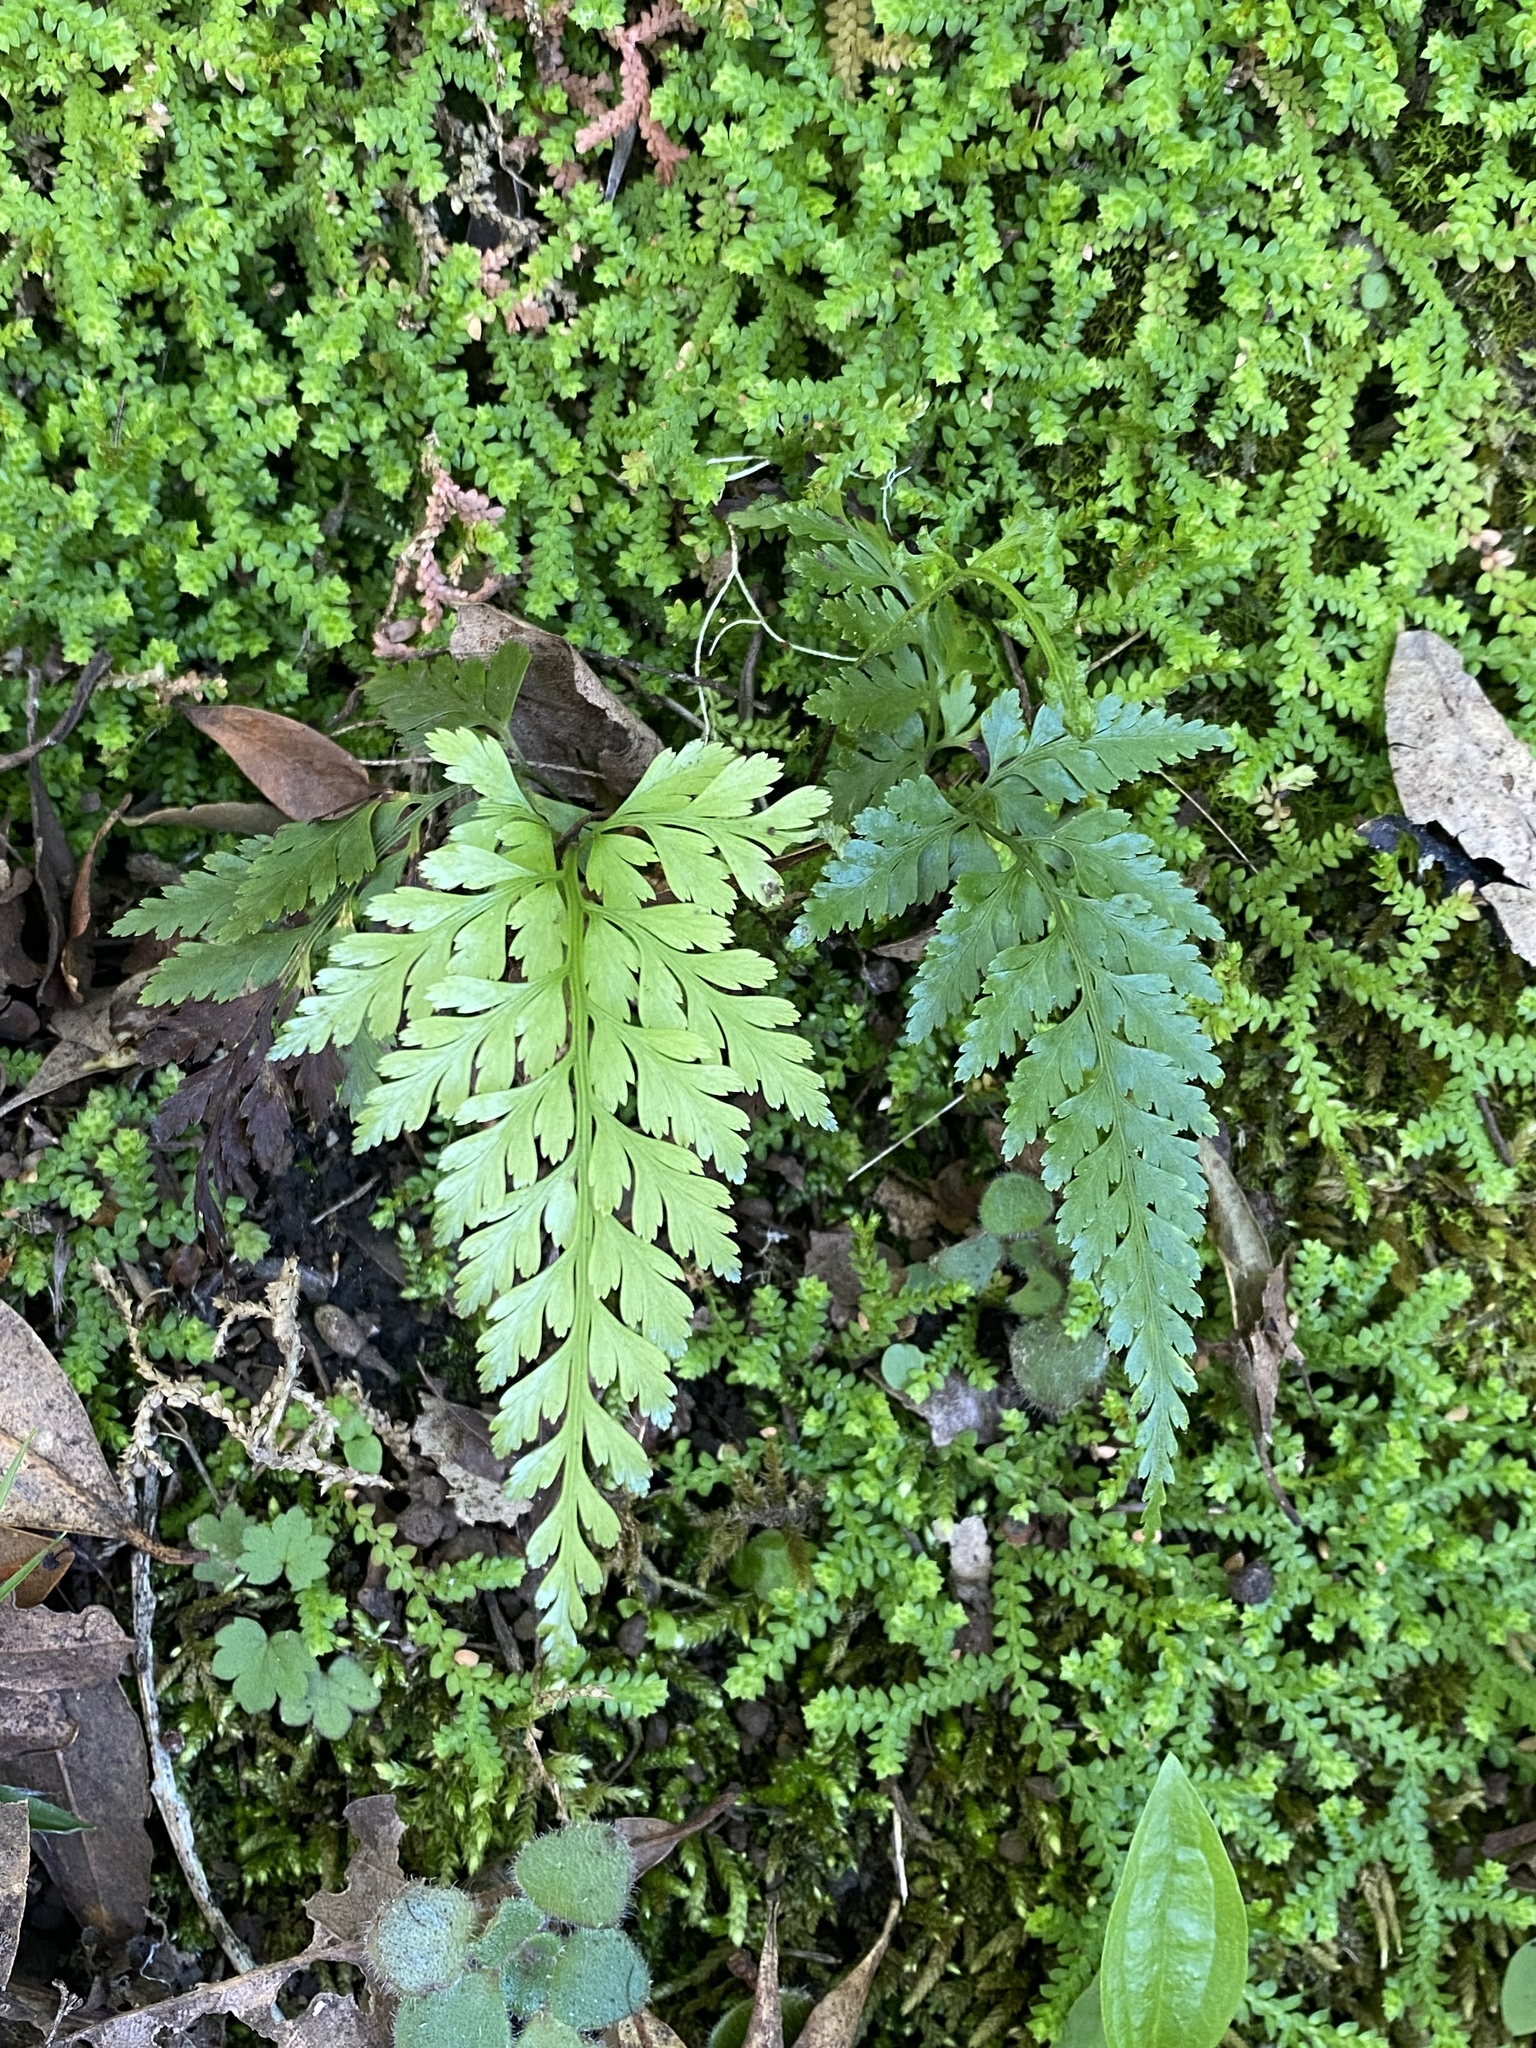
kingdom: Plantae
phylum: Tracheophyta
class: Polypodiopsida
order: Polypodiales
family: Aspleniaceae
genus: Asplenium
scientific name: Asplenium onopteris
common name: Irish spleenwort
